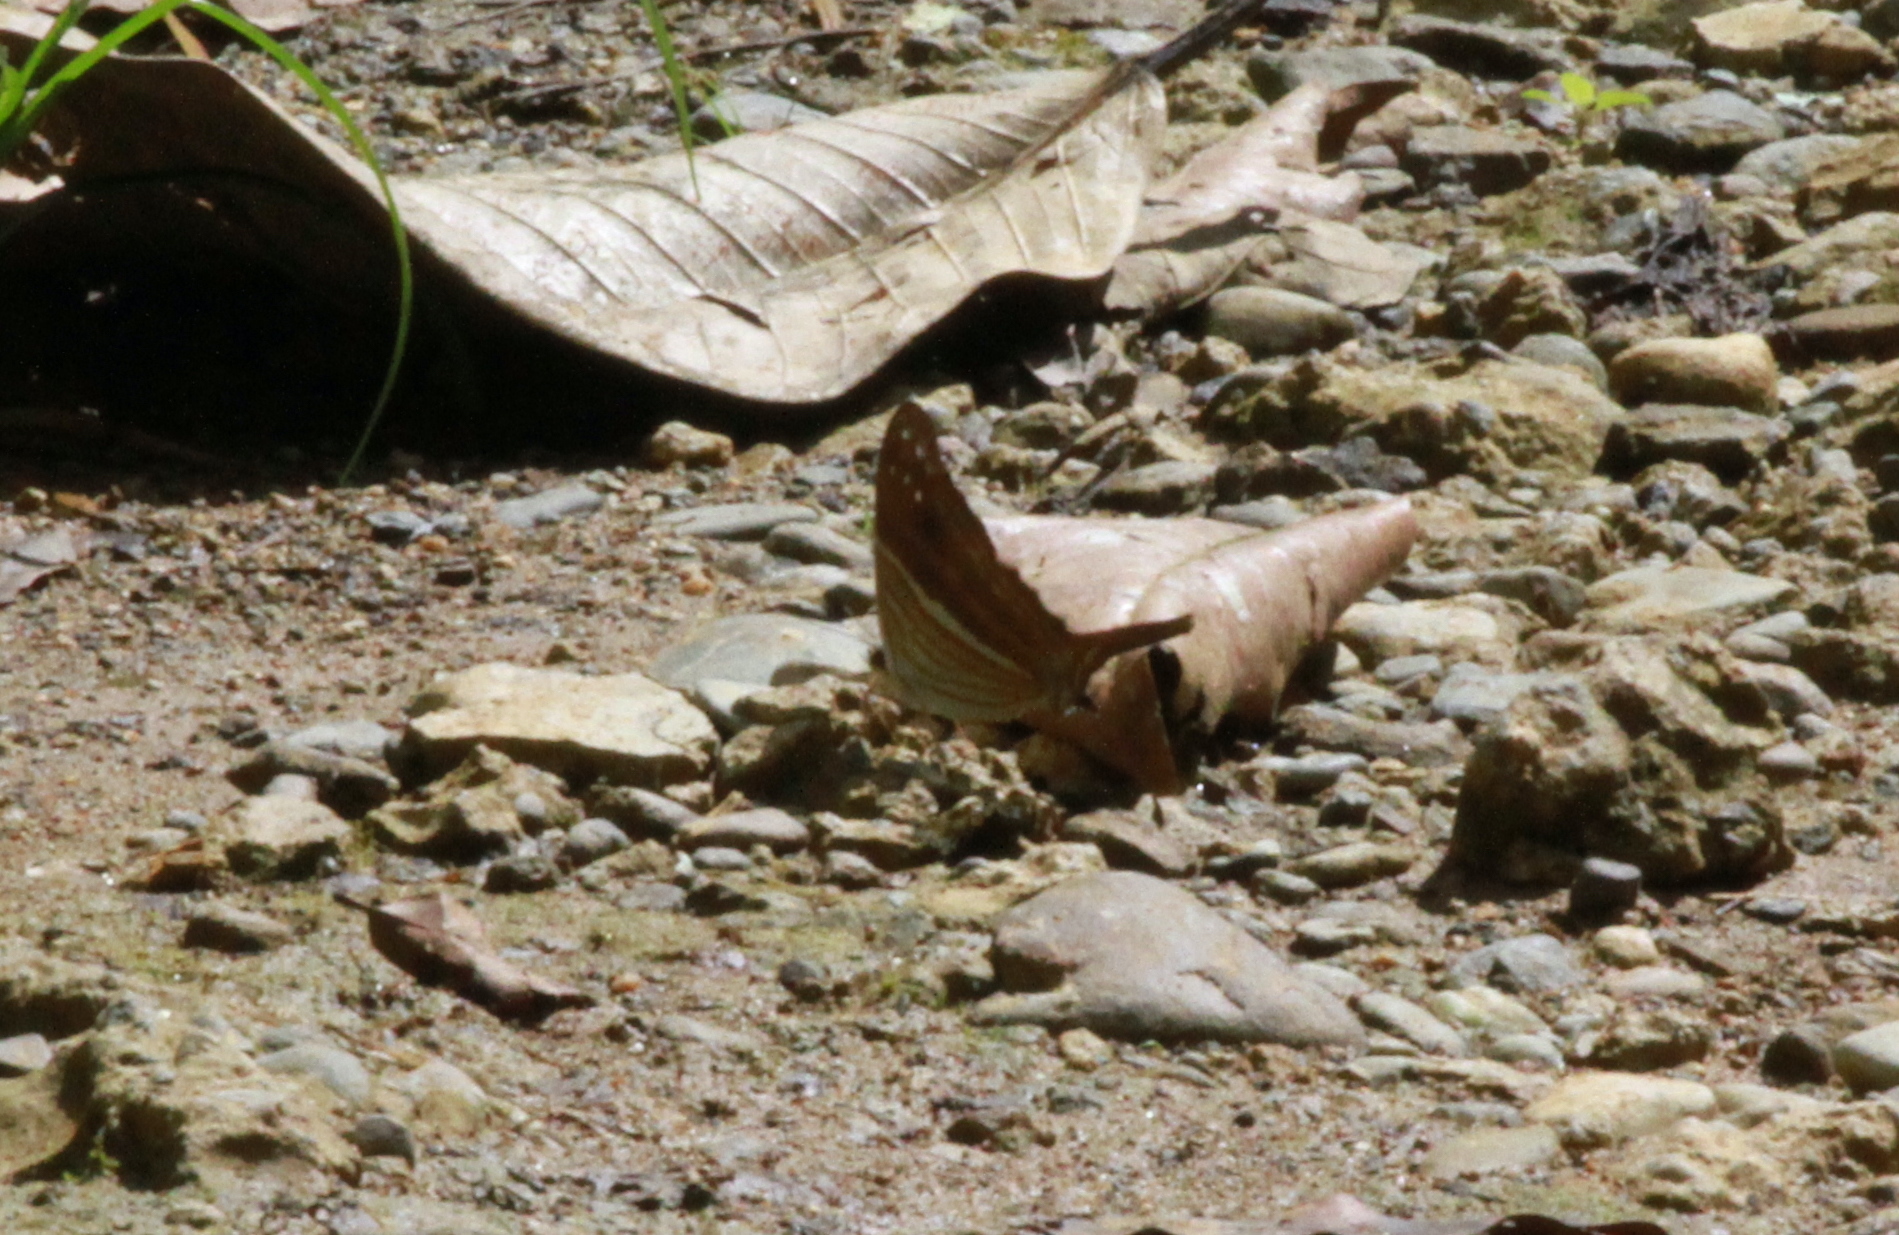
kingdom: Animalia
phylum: Arthropoda
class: Insecta
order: Lepidoptera
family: Nymphalidae
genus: Marpesia
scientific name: Marpesia chiron
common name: Many-banded daggerwing
